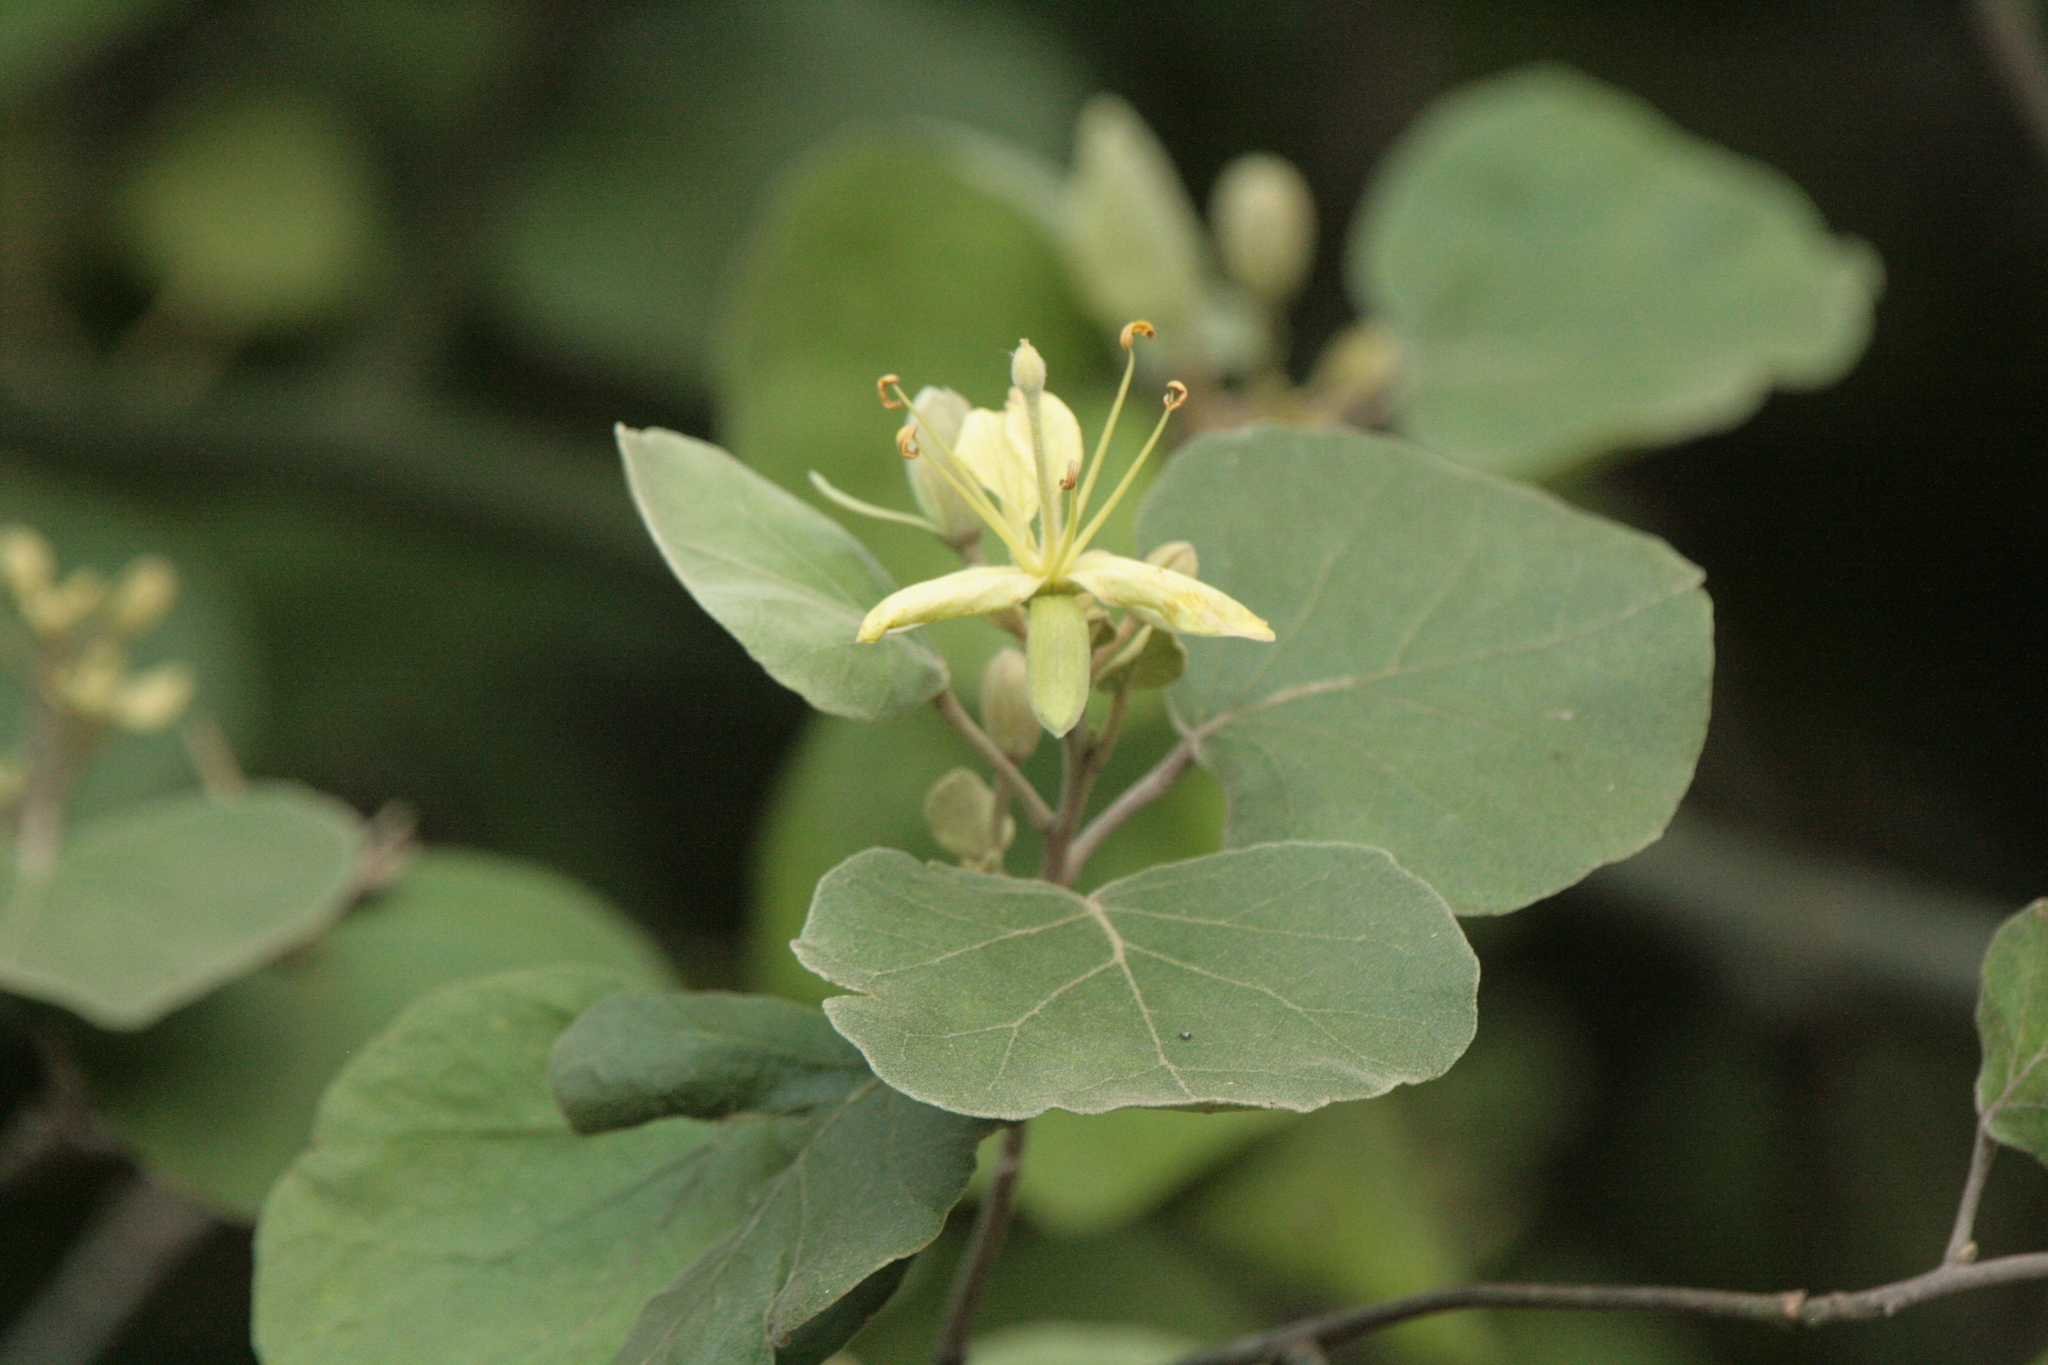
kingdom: Plantae
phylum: Tracheophyta
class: Magnoliopsida
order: Brassicales
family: Capparaceae
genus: Capparicordis
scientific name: Capparicordis tweedieana
